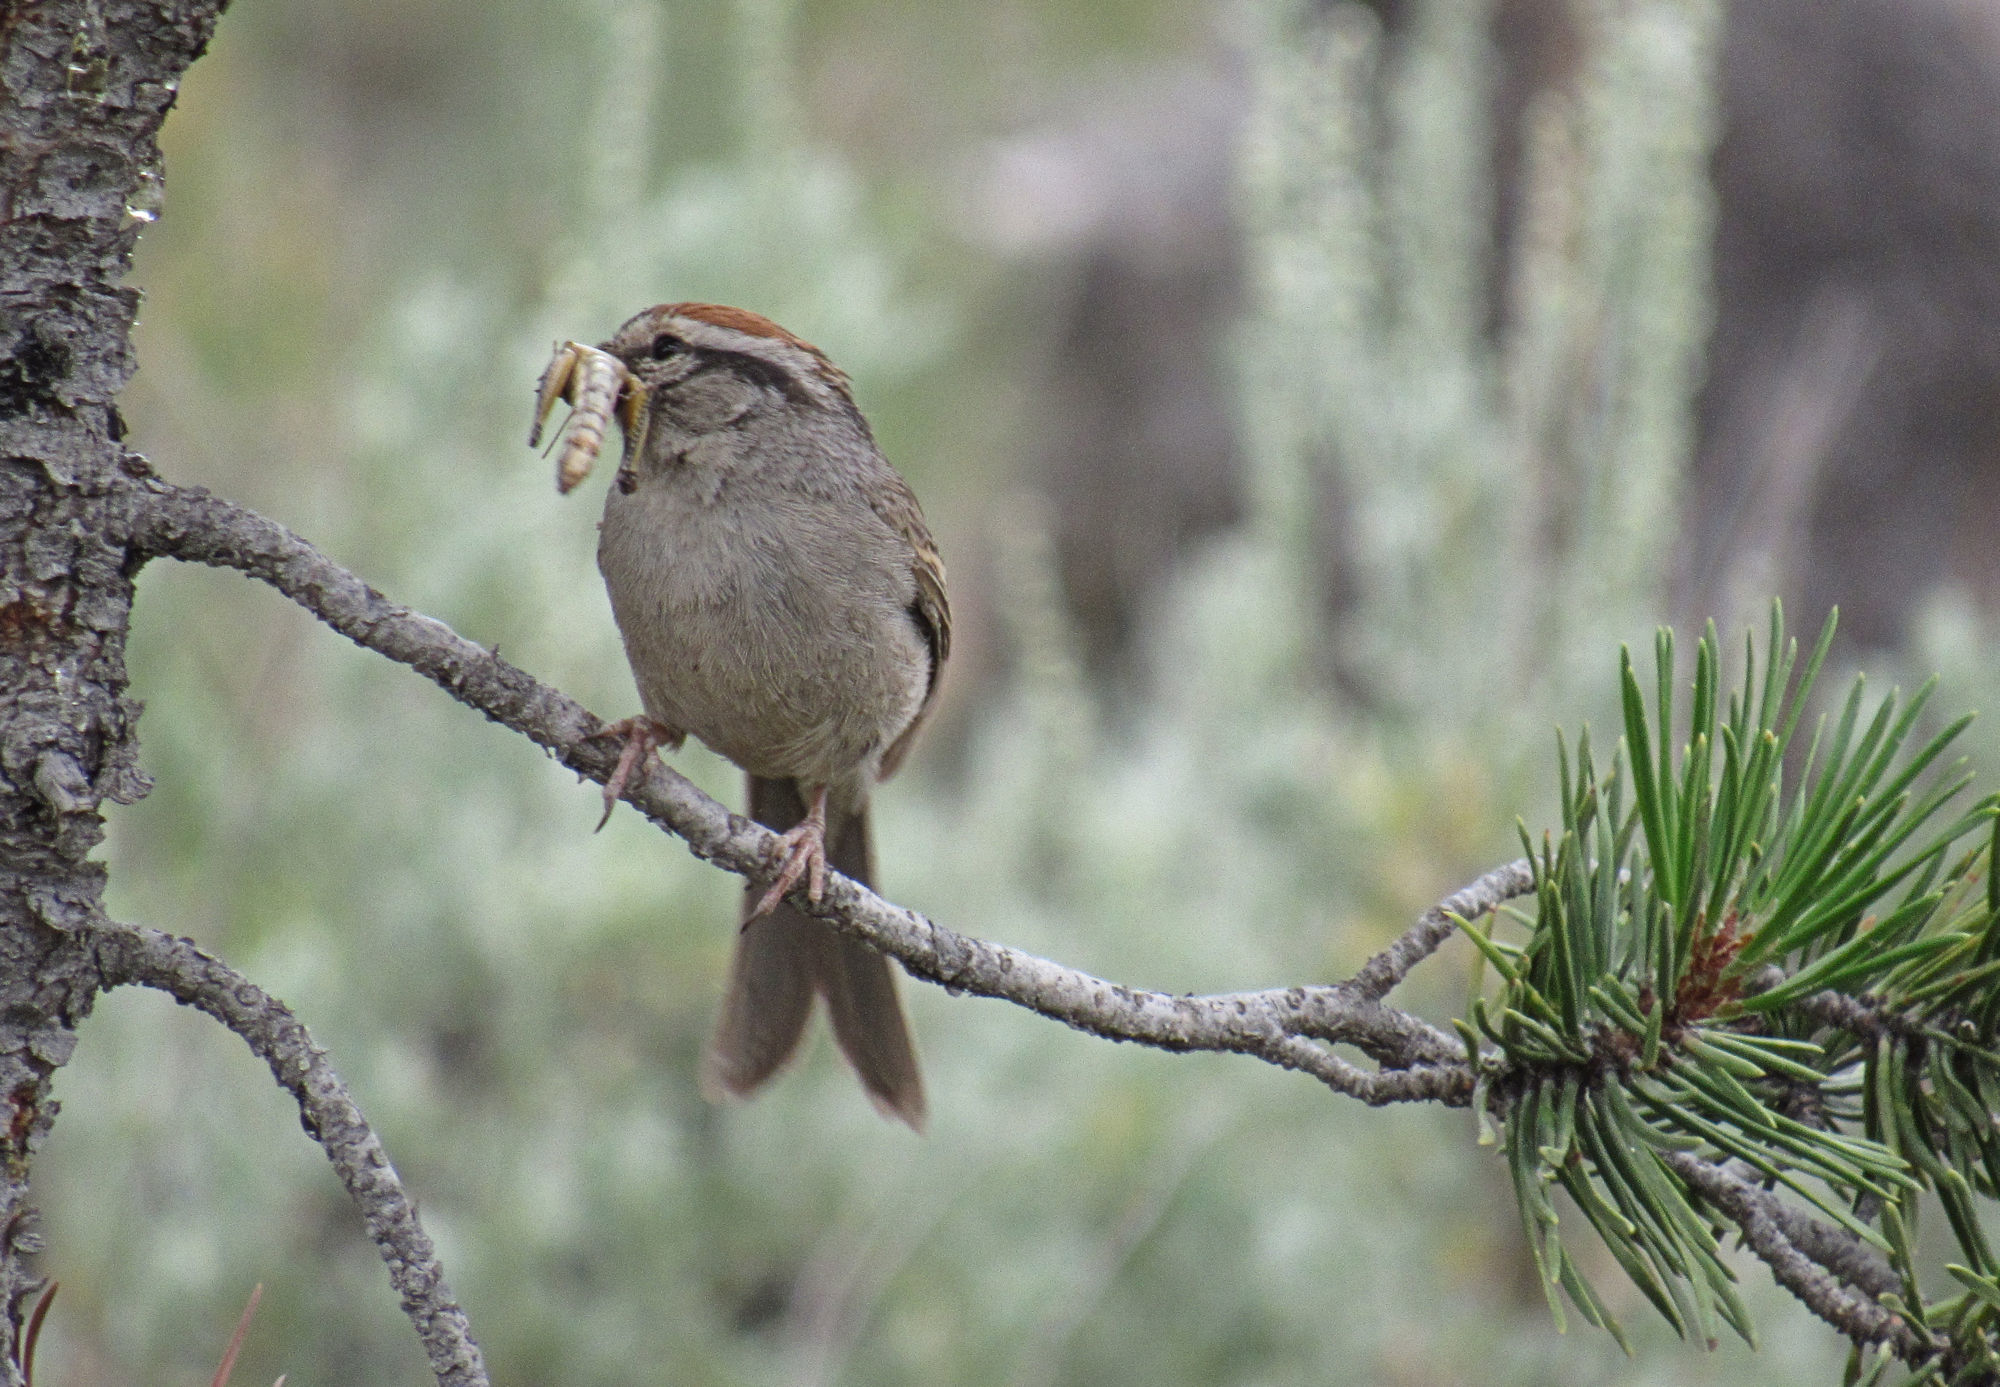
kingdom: Animalia
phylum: Chordata
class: Aves
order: Passeriformes
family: Passerellidae
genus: Spizella
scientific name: Spizella passerina
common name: Chipping sparrow
